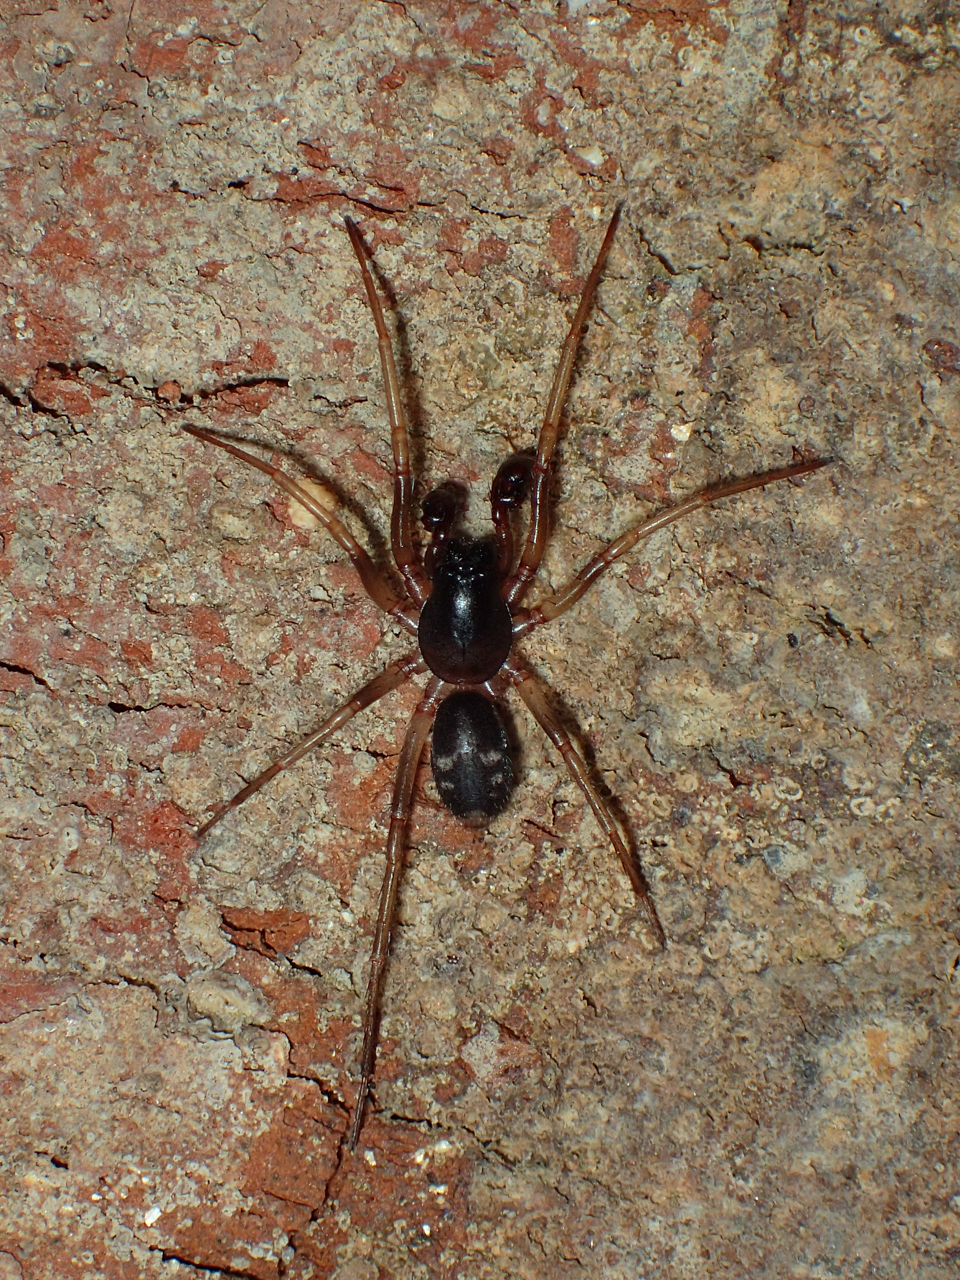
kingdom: Animalia
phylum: Arthropoda
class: Arachnida
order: Araneae
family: Corinnidae
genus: Falconina
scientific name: Falconina gracilis
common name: Antmimic spider
